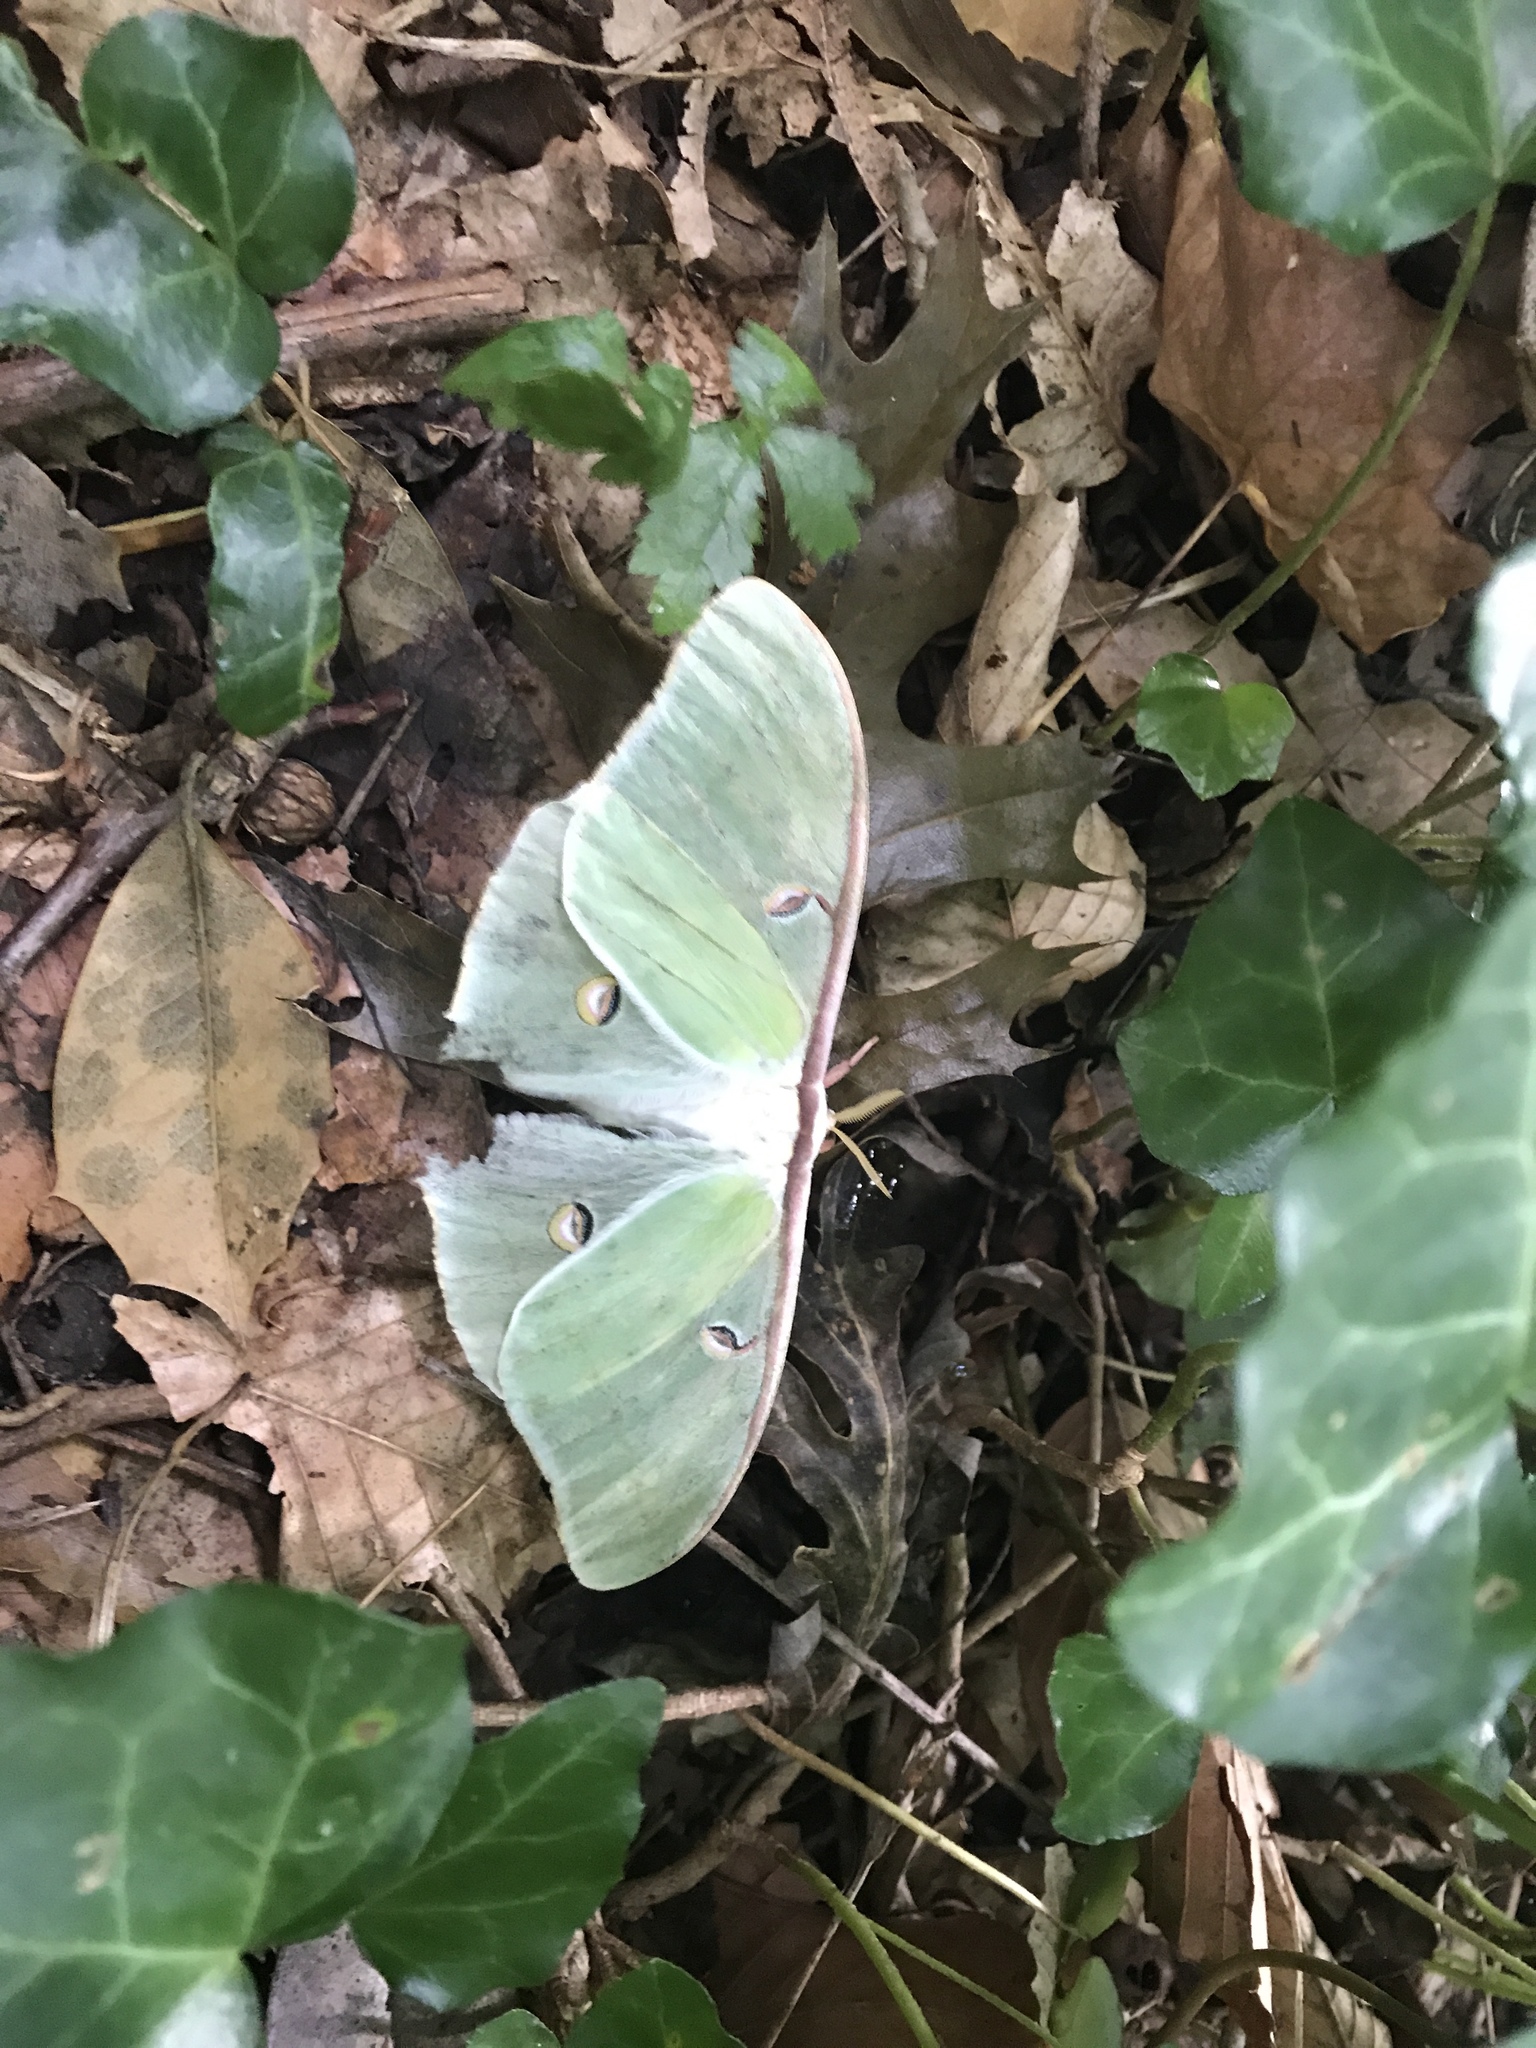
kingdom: Animalia
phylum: Arthropoda
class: Insecta
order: Lepidoptera
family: Saturniidae
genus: Actias
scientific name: Actias luna
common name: Luna moth
